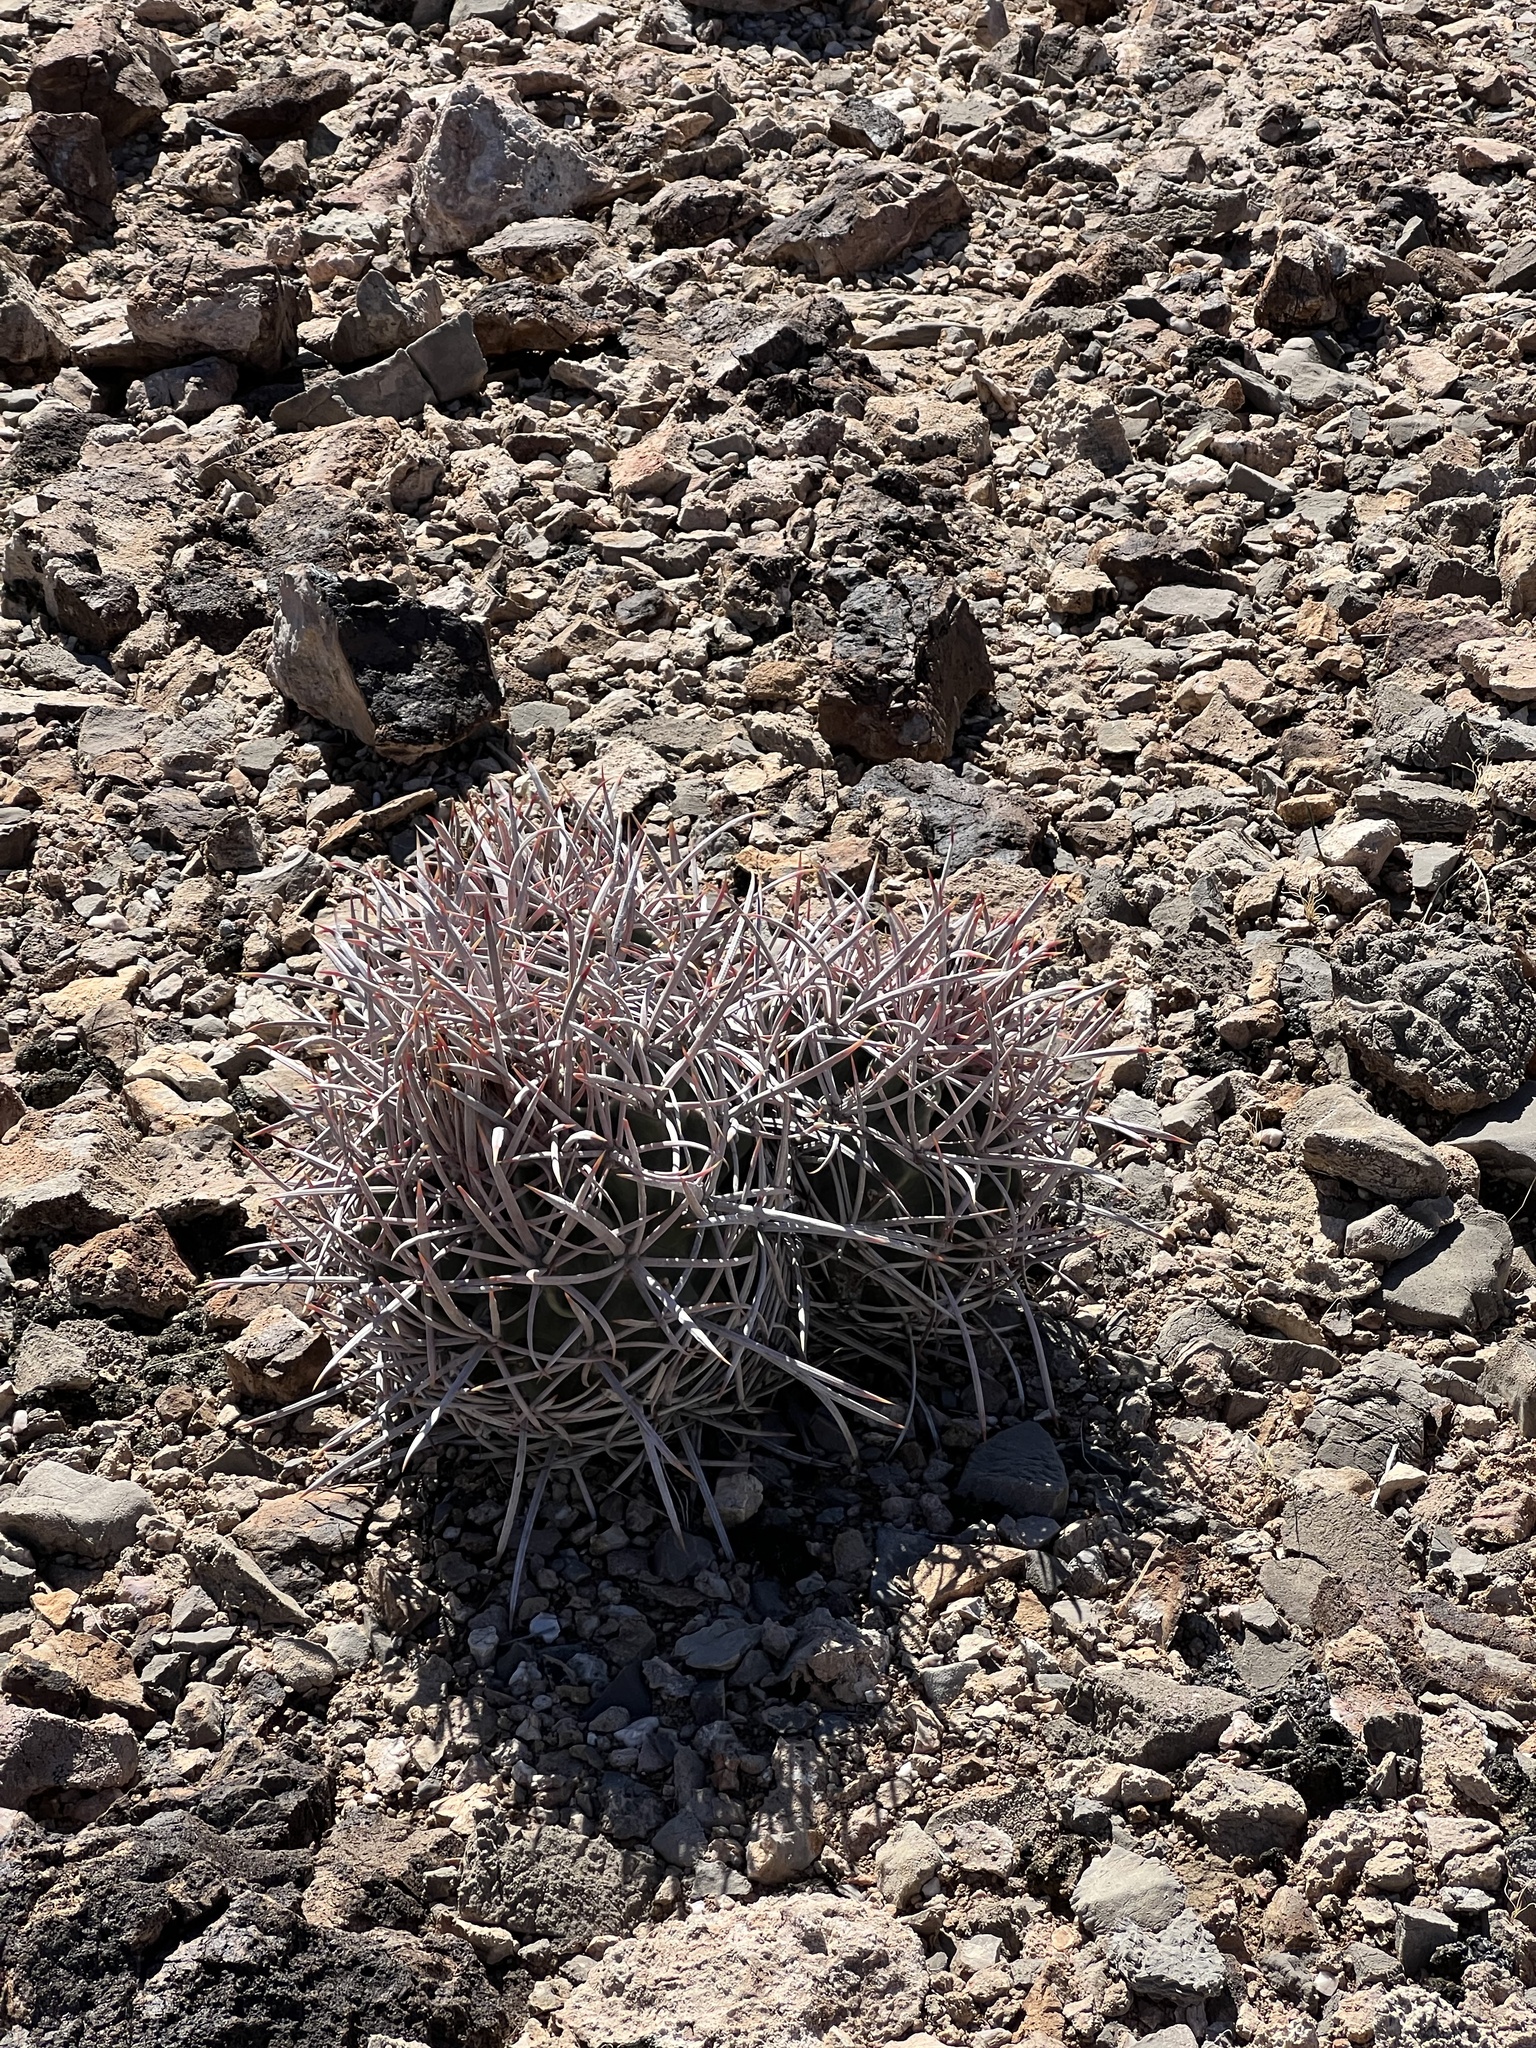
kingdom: Plantae
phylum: Tracheophyta
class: Magnoliopsida
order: Caryophyllales
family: Cactaceae
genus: Echinocactus
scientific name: Echinocactus polycephalus
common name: Cottontop cactus
